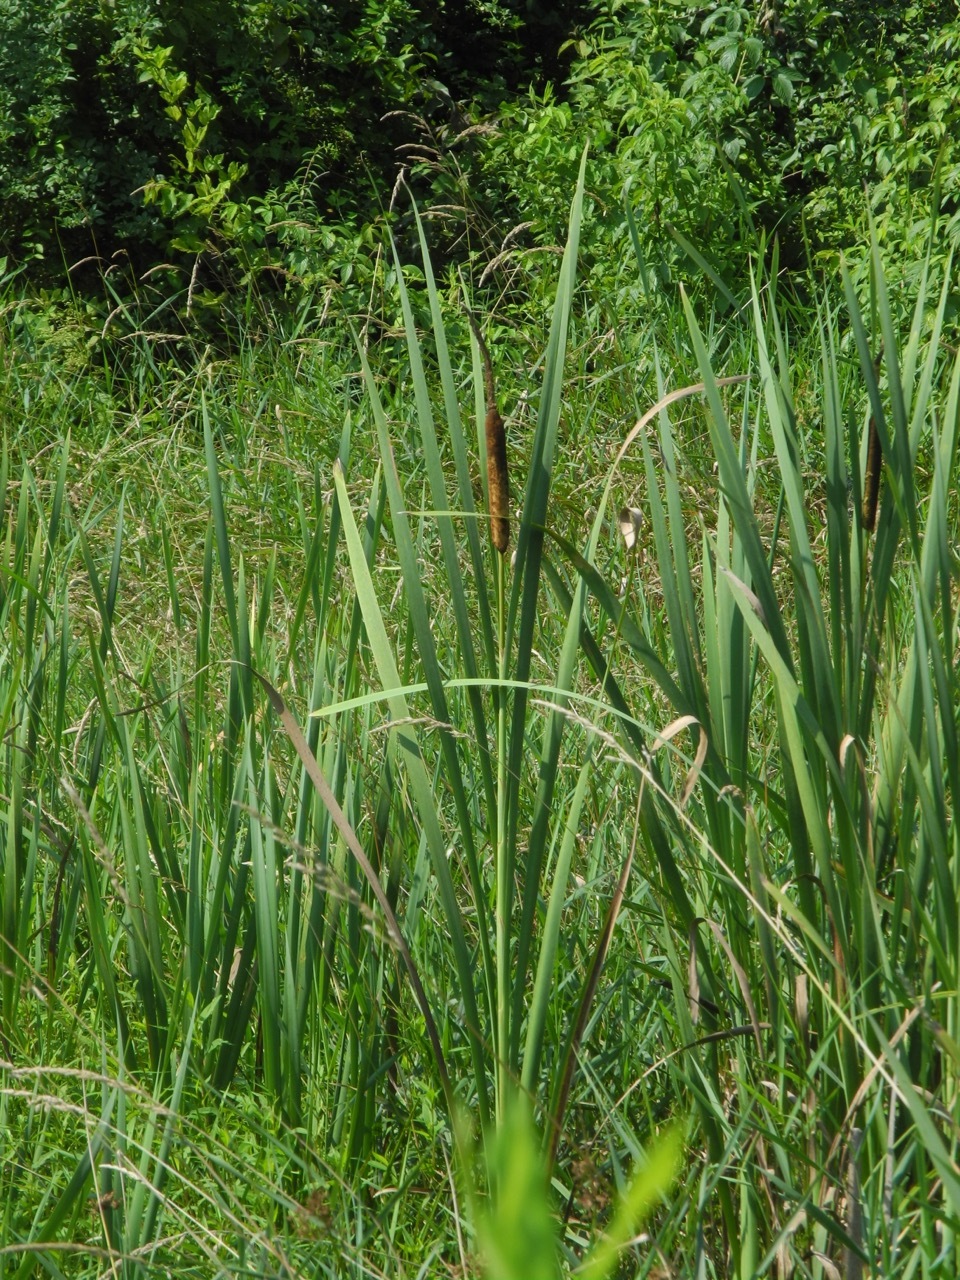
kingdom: Plantae
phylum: Tracheophyta
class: Liliopsida
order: Poales
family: Typhaceae
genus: Typha
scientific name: Typha latifolia
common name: Broadleaf cattail
